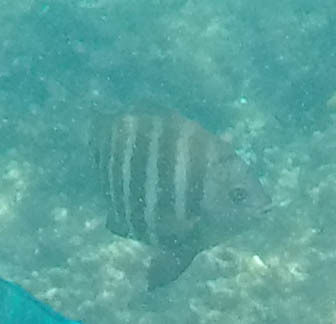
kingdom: Animalia
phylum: Chordata
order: Perciformes
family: Pomacentridae
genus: Abudefduf
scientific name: Abudefduf sordidus
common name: Blackspot sergeant
